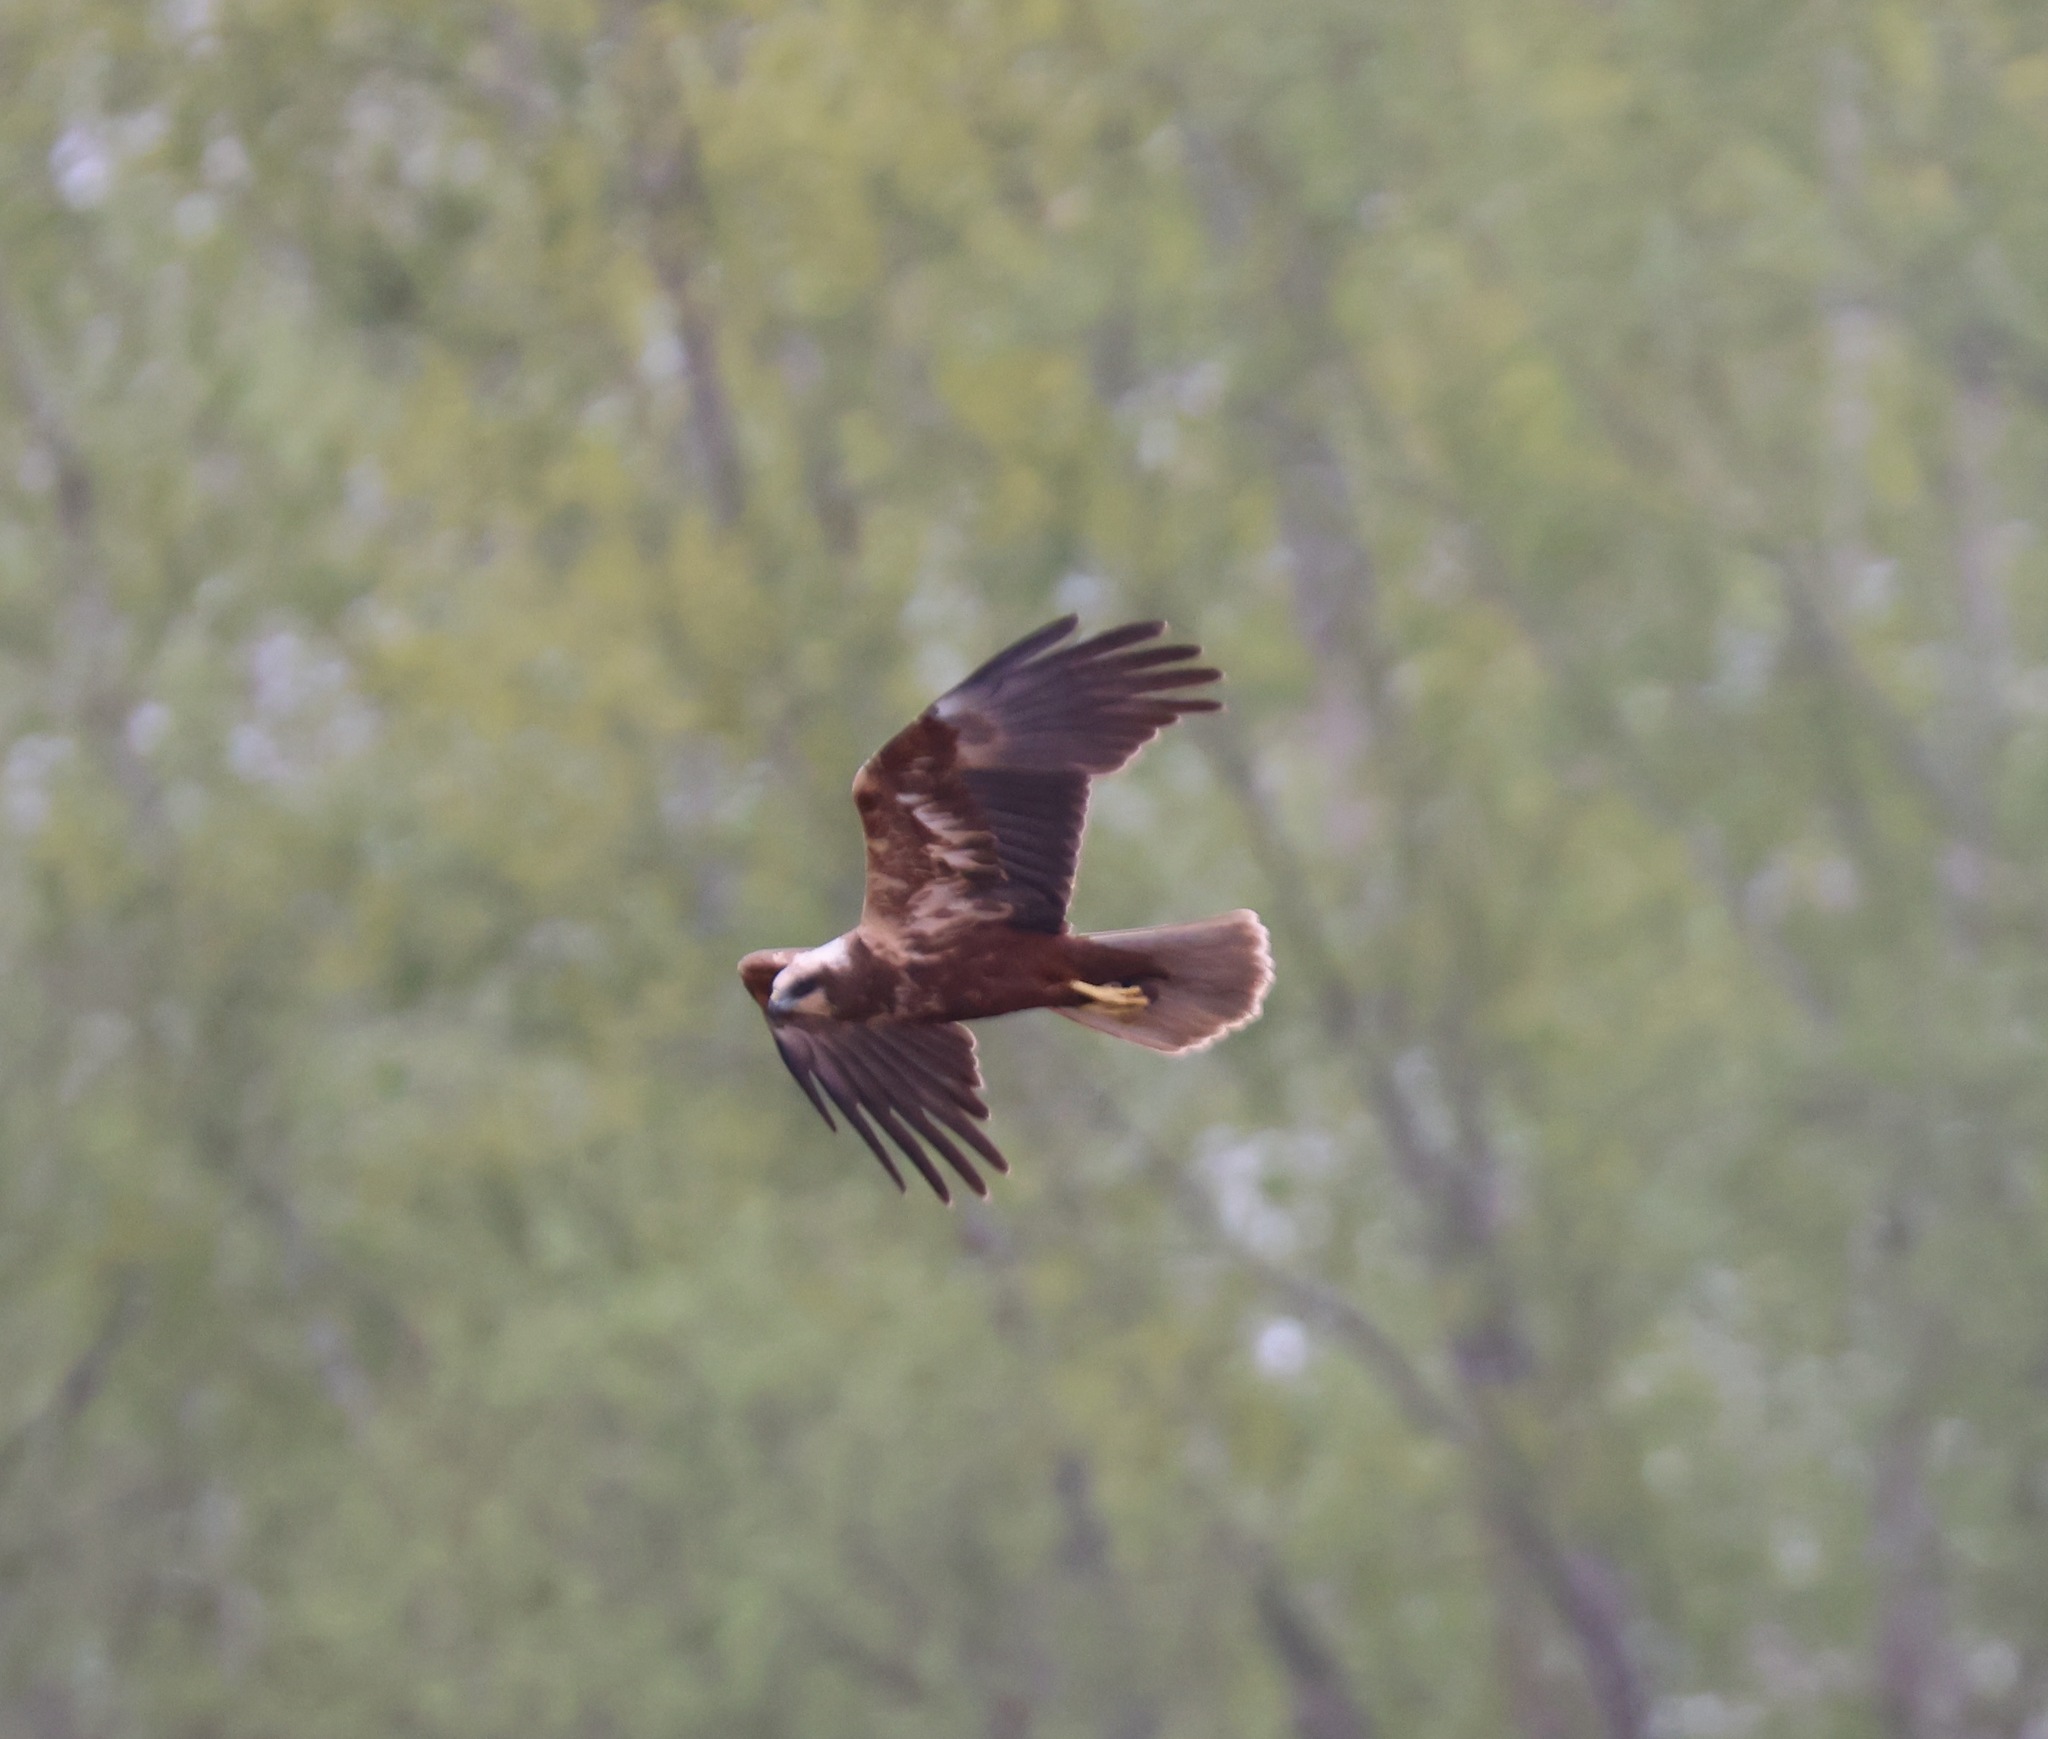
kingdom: Animalia
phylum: Chordata
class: Aves
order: Accipitriformes
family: Accipitridae
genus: Circus
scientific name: Circus aeruginosus
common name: Western marsh harrier
